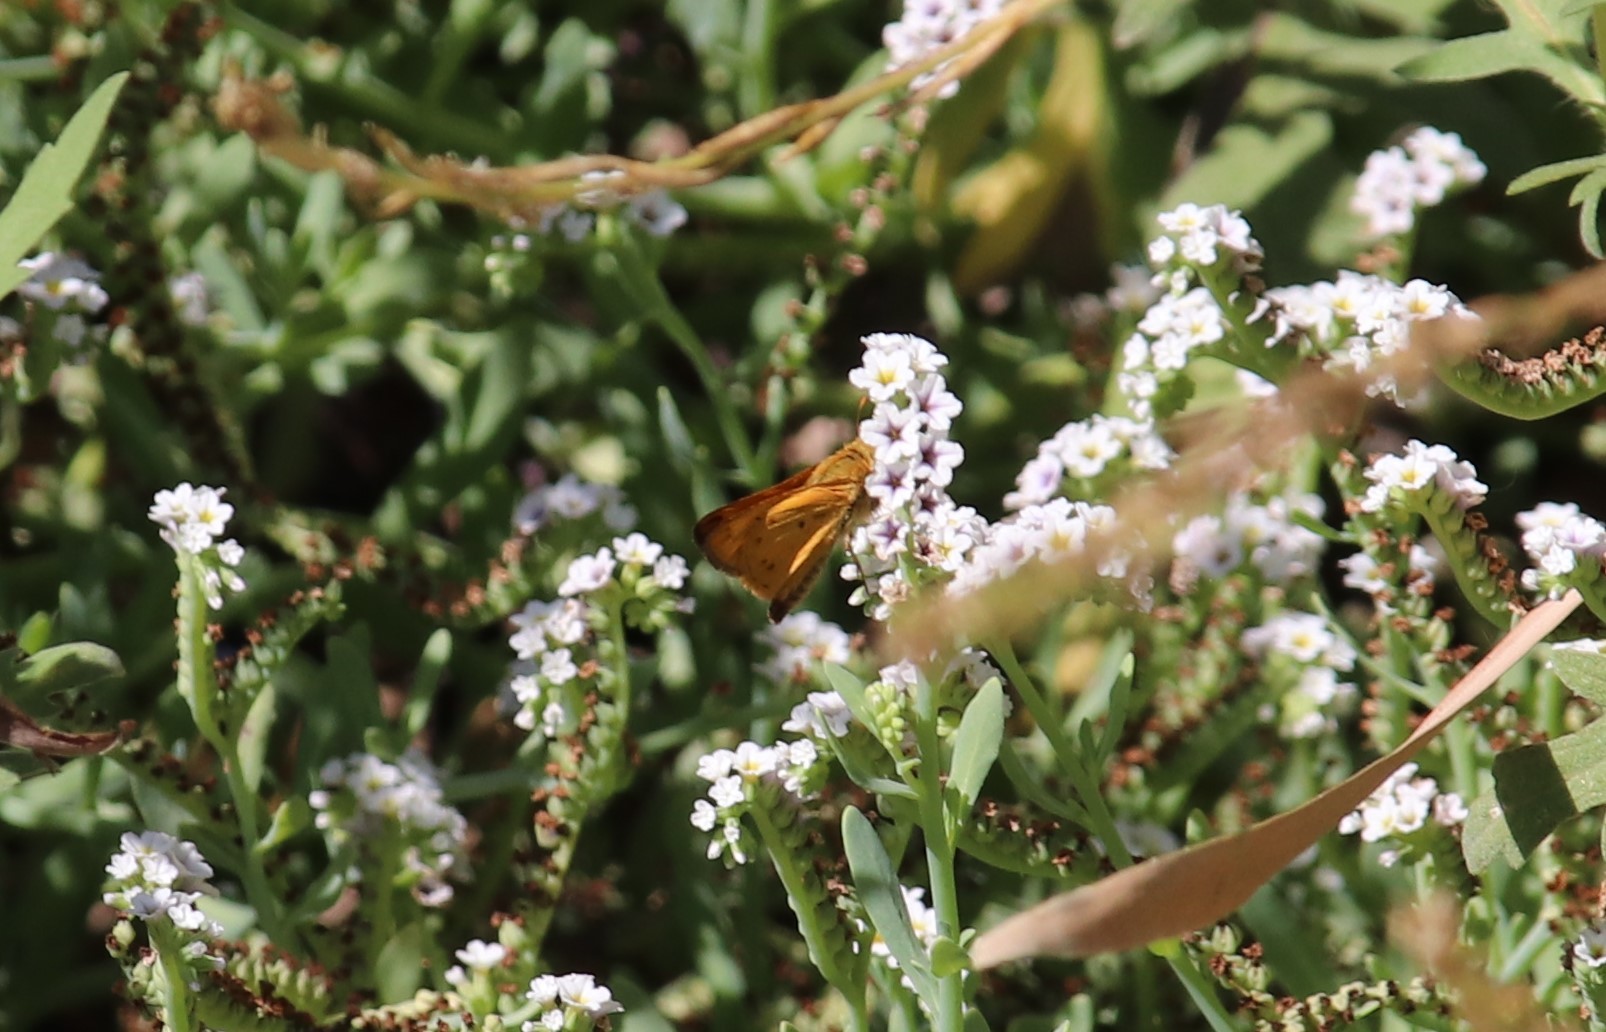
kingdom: Animalia
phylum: Arthropoda
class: Insecta
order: Lepidoptera
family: Hesperiidae
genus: Hylephila
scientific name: Hylephila phyleus
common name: Fiery skipper
